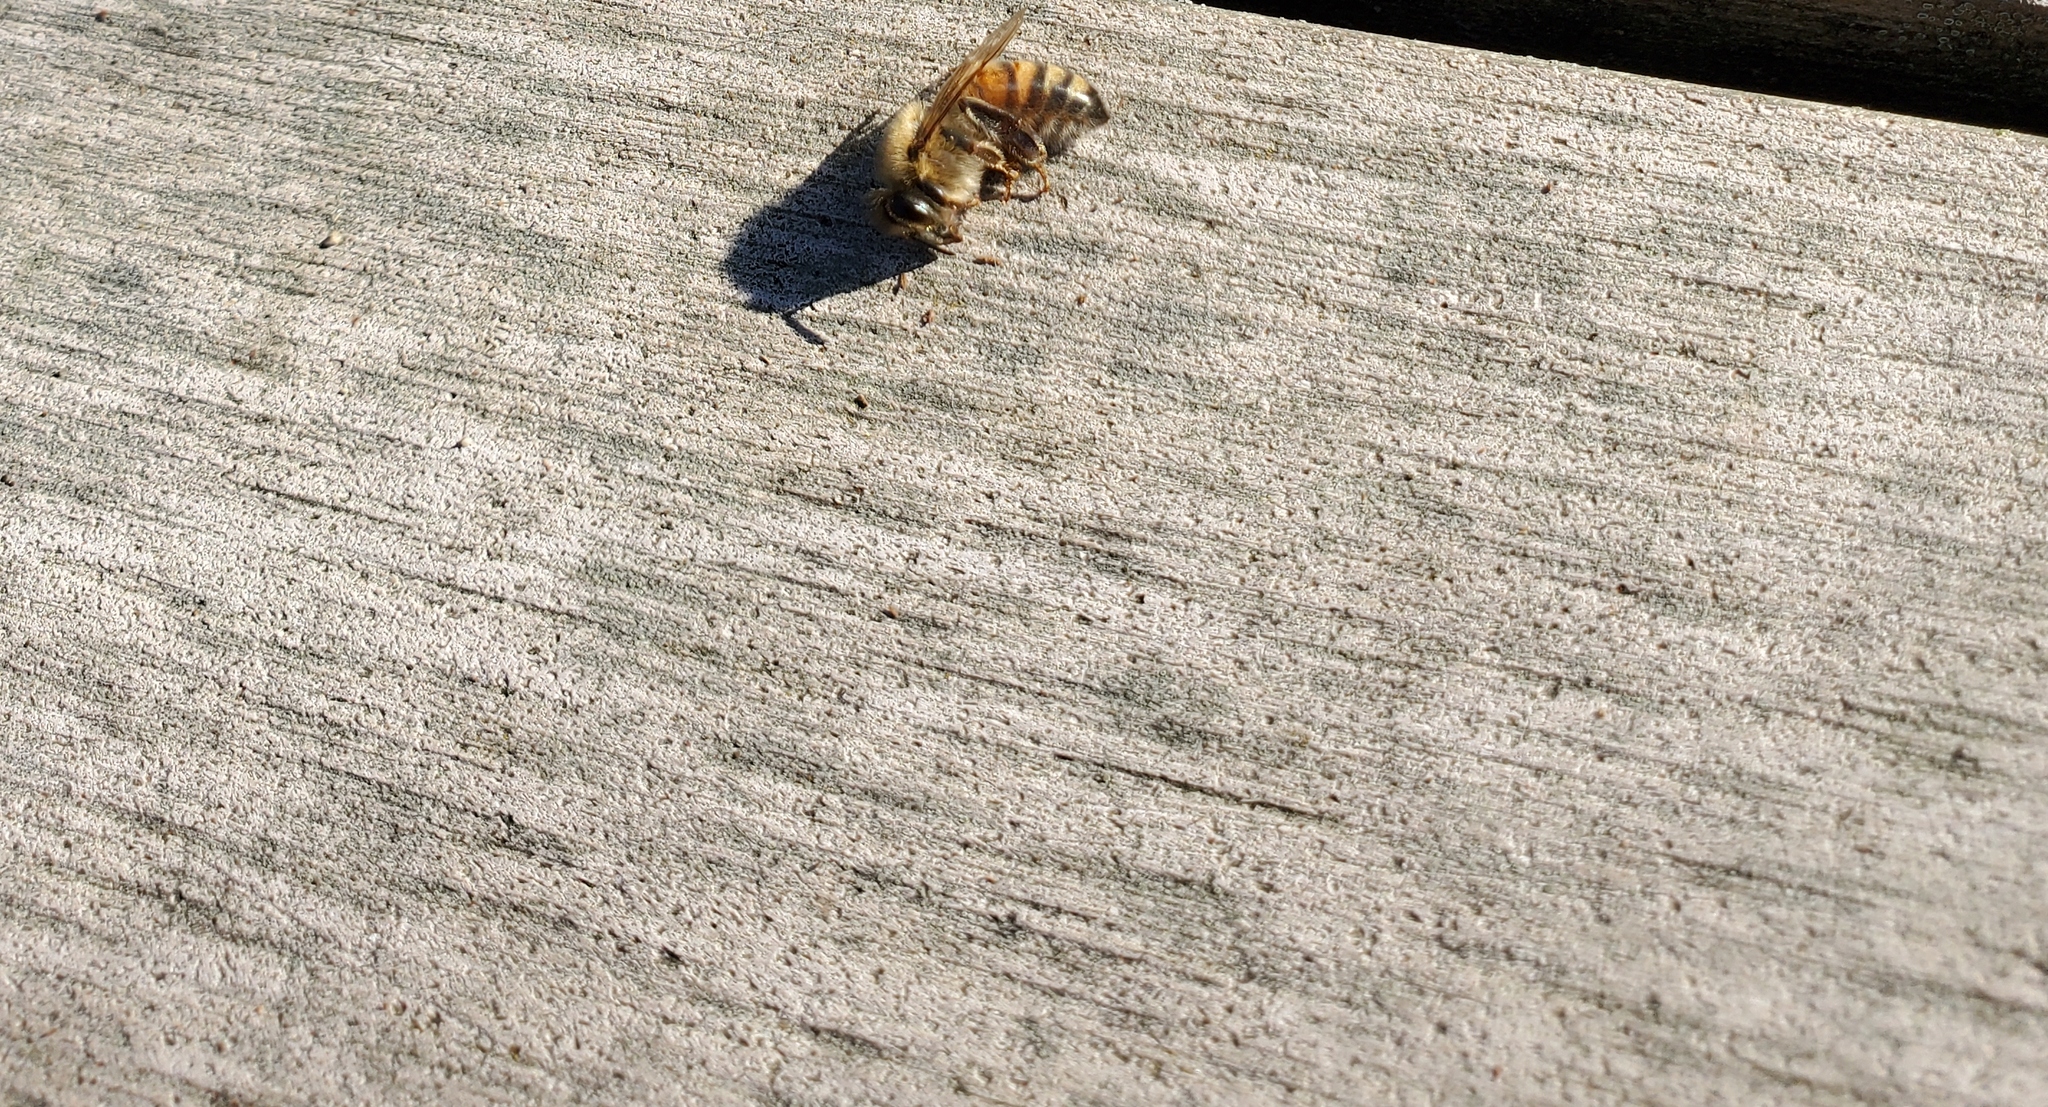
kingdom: Animalia
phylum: Arthropoda
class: Insecta
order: Hymenoptera
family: Apidae
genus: Apis
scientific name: Apis mellifera
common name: Honey bee
